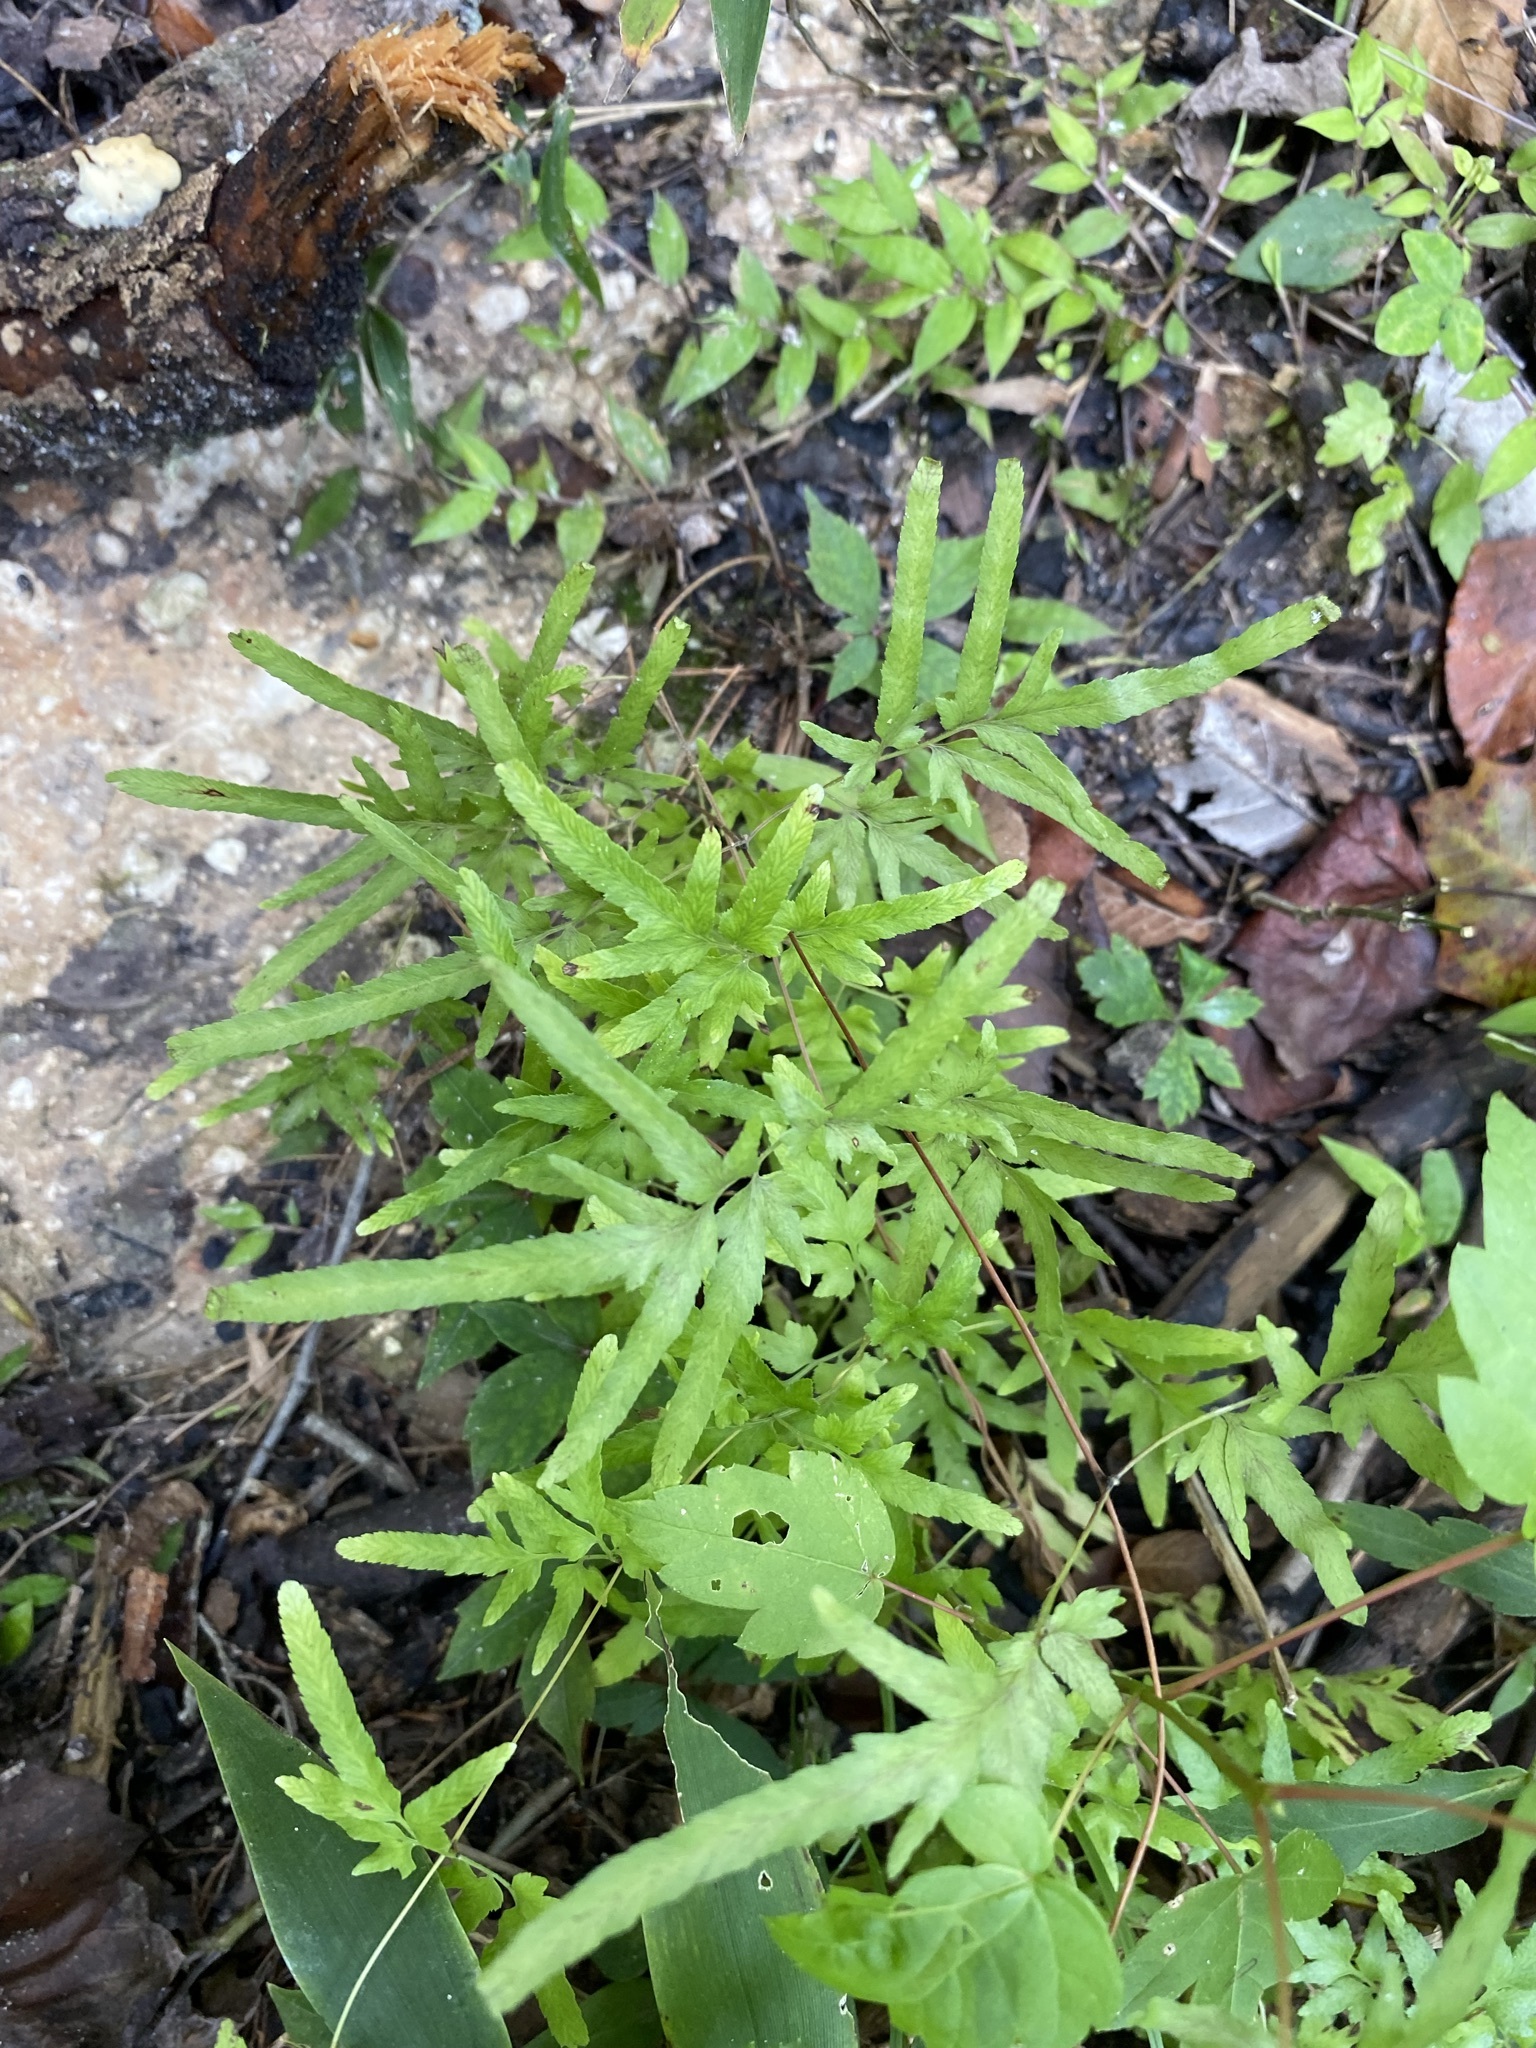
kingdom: Plantae
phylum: Tracheophyta
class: Polypodiopsida
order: Schizaeales
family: Lygodiaceae
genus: Lygodium
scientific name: Lygodium japonicum
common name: Japanese climbing fern
